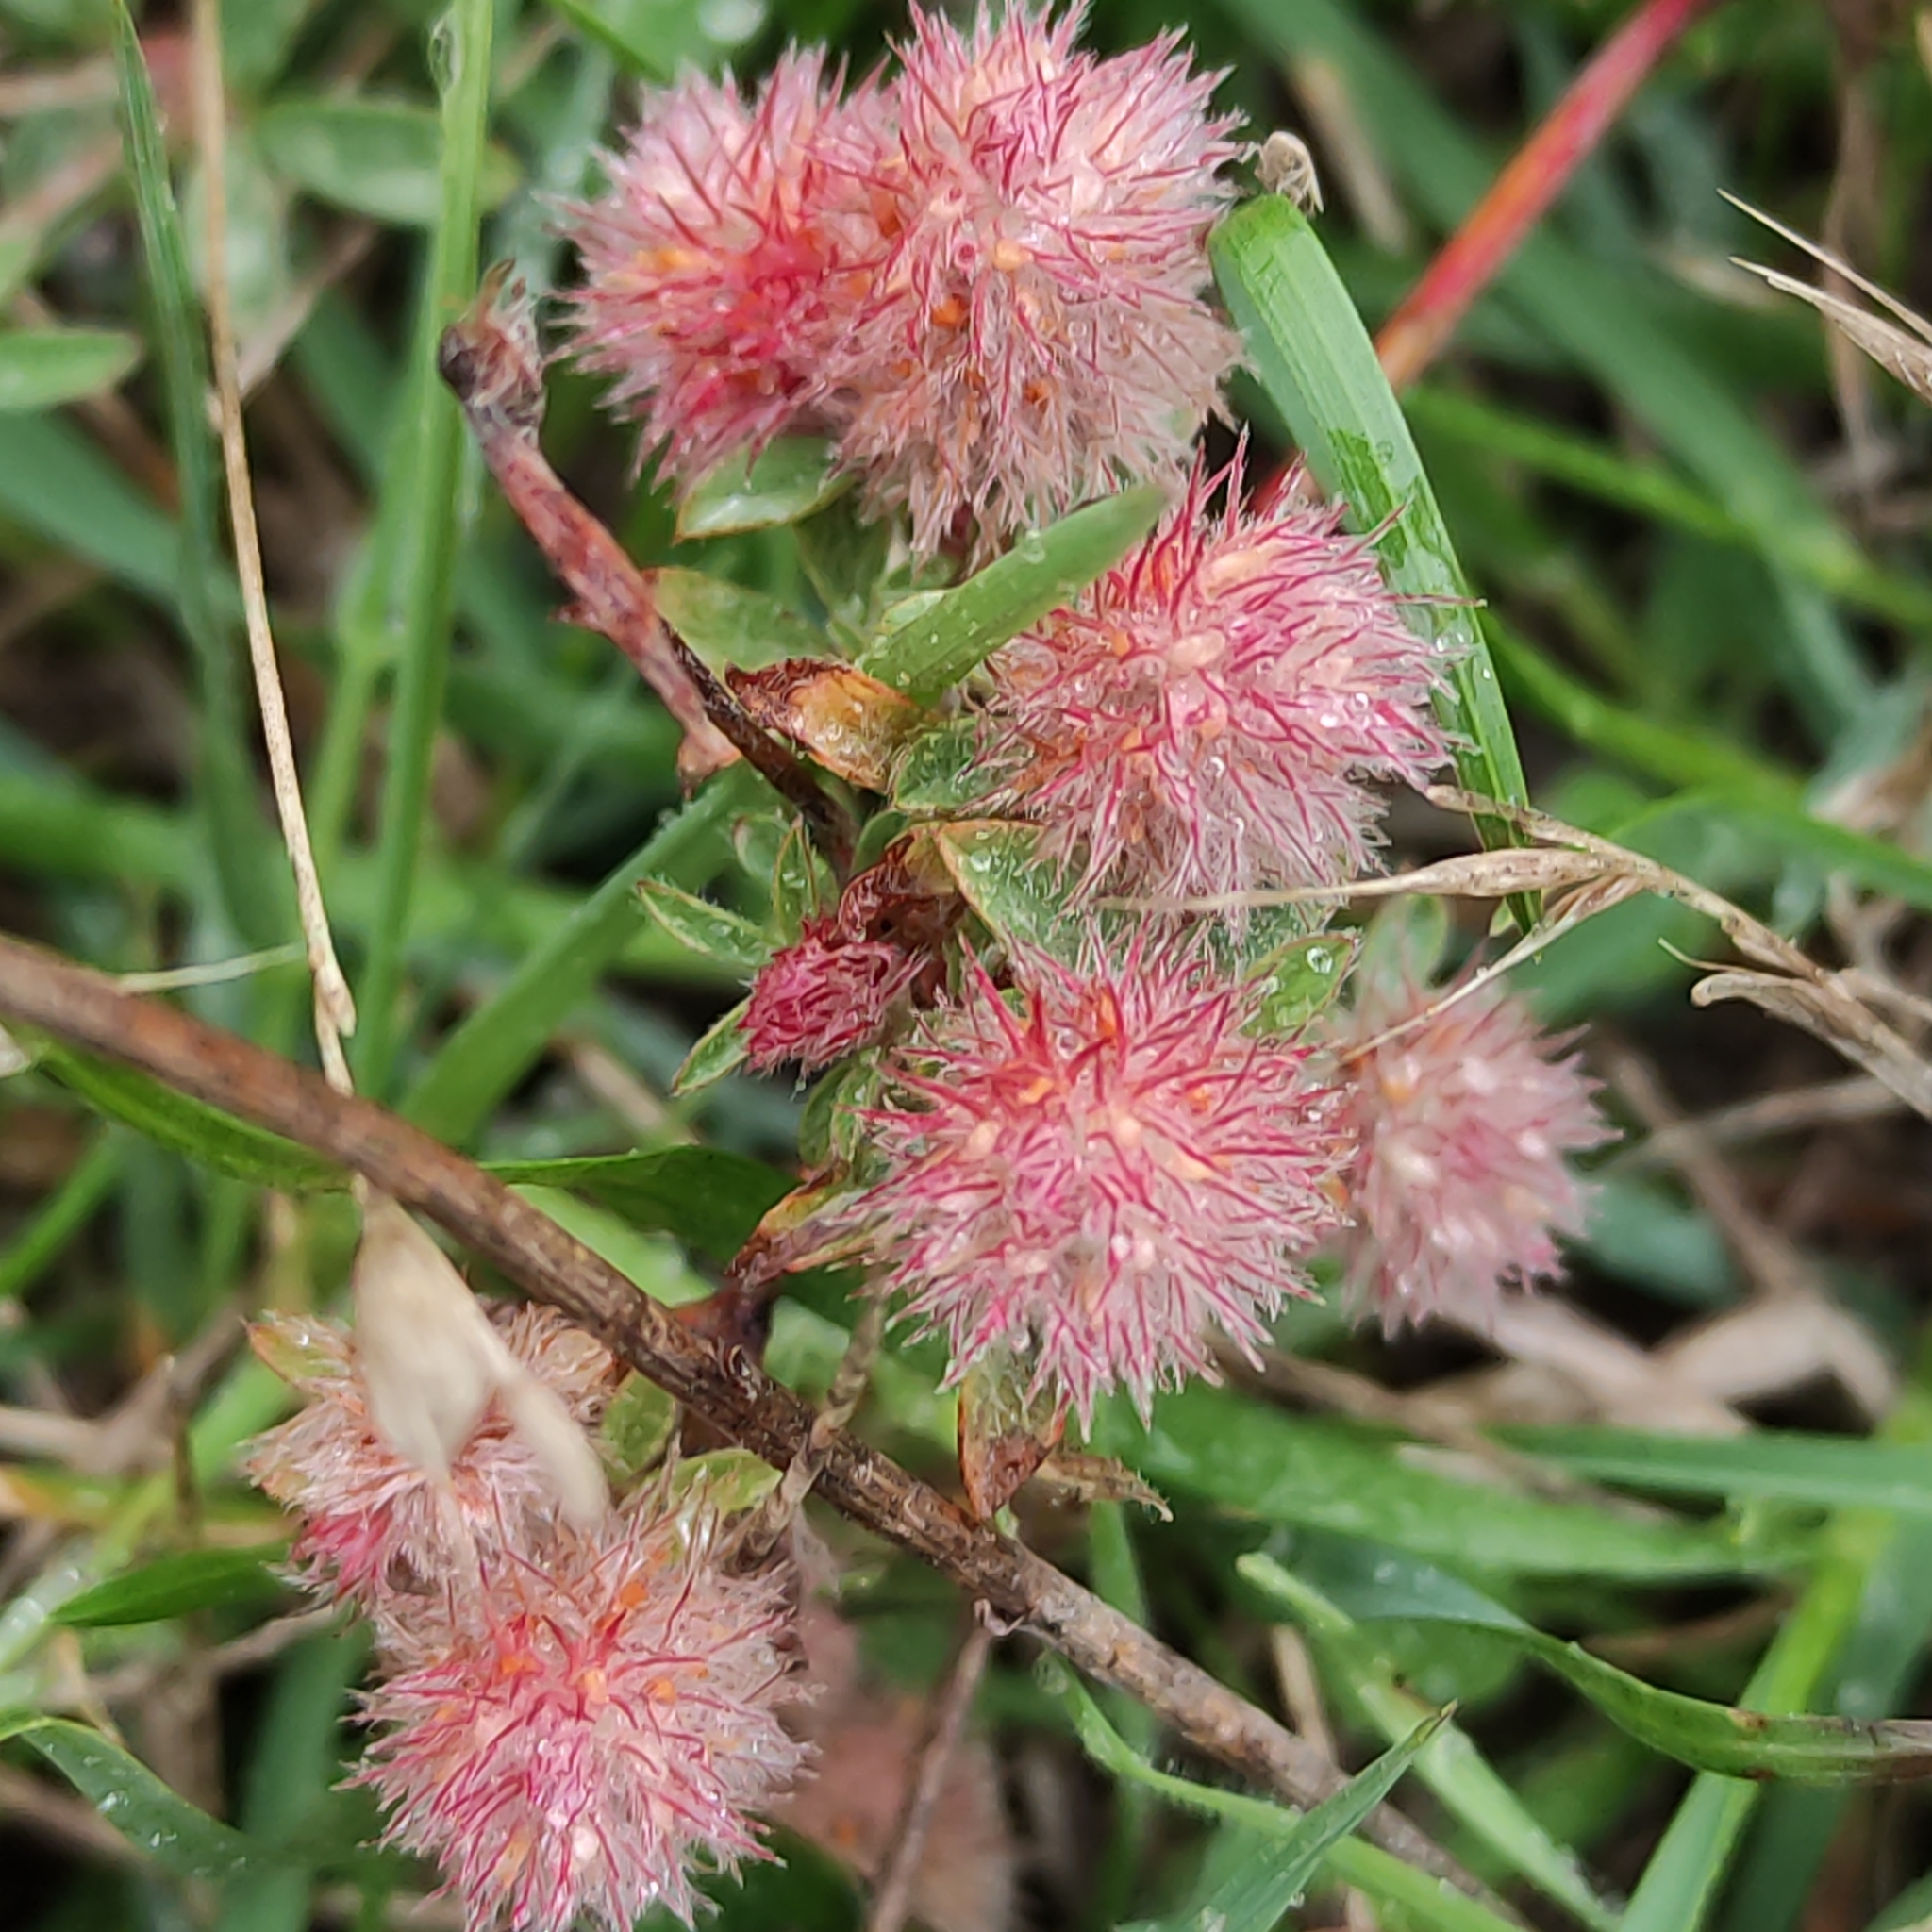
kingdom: Plantae
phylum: Tracheophyta
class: Magnoliopsida
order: Fabales
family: Fabaceae
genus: Trifolium
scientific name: Trifolium arvense
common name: Hare's-foot clover
